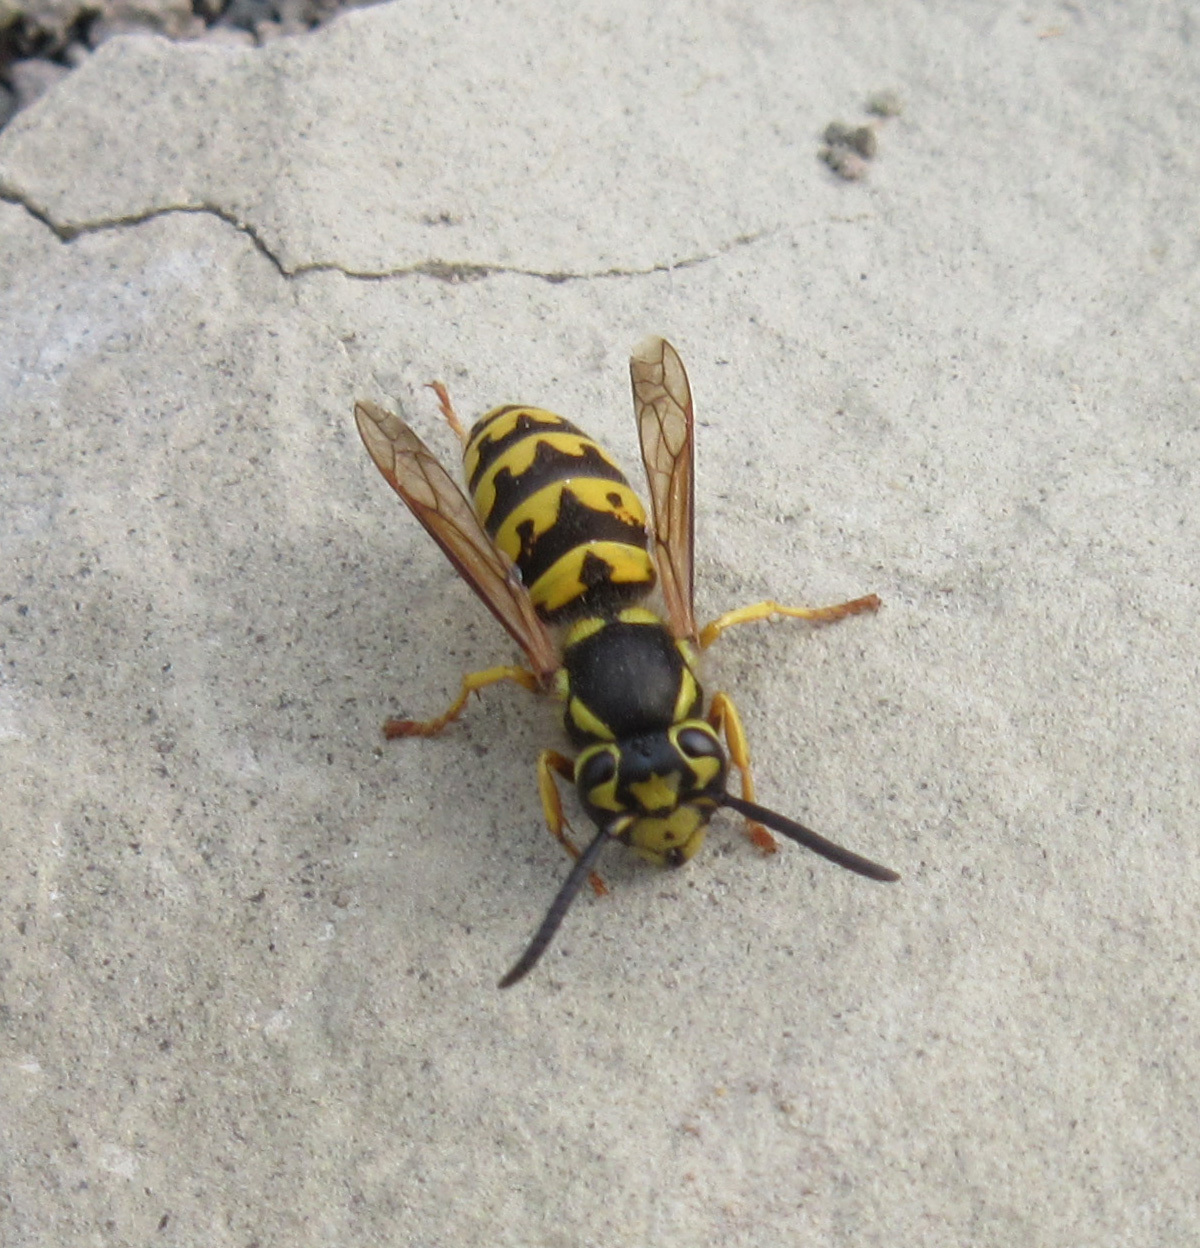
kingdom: Animalia
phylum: Arthropoda
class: Insecta
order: Hymenoptera
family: Vespidae
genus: Vespula
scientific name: Vespula pensylvanica
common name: Western yellowjacket
